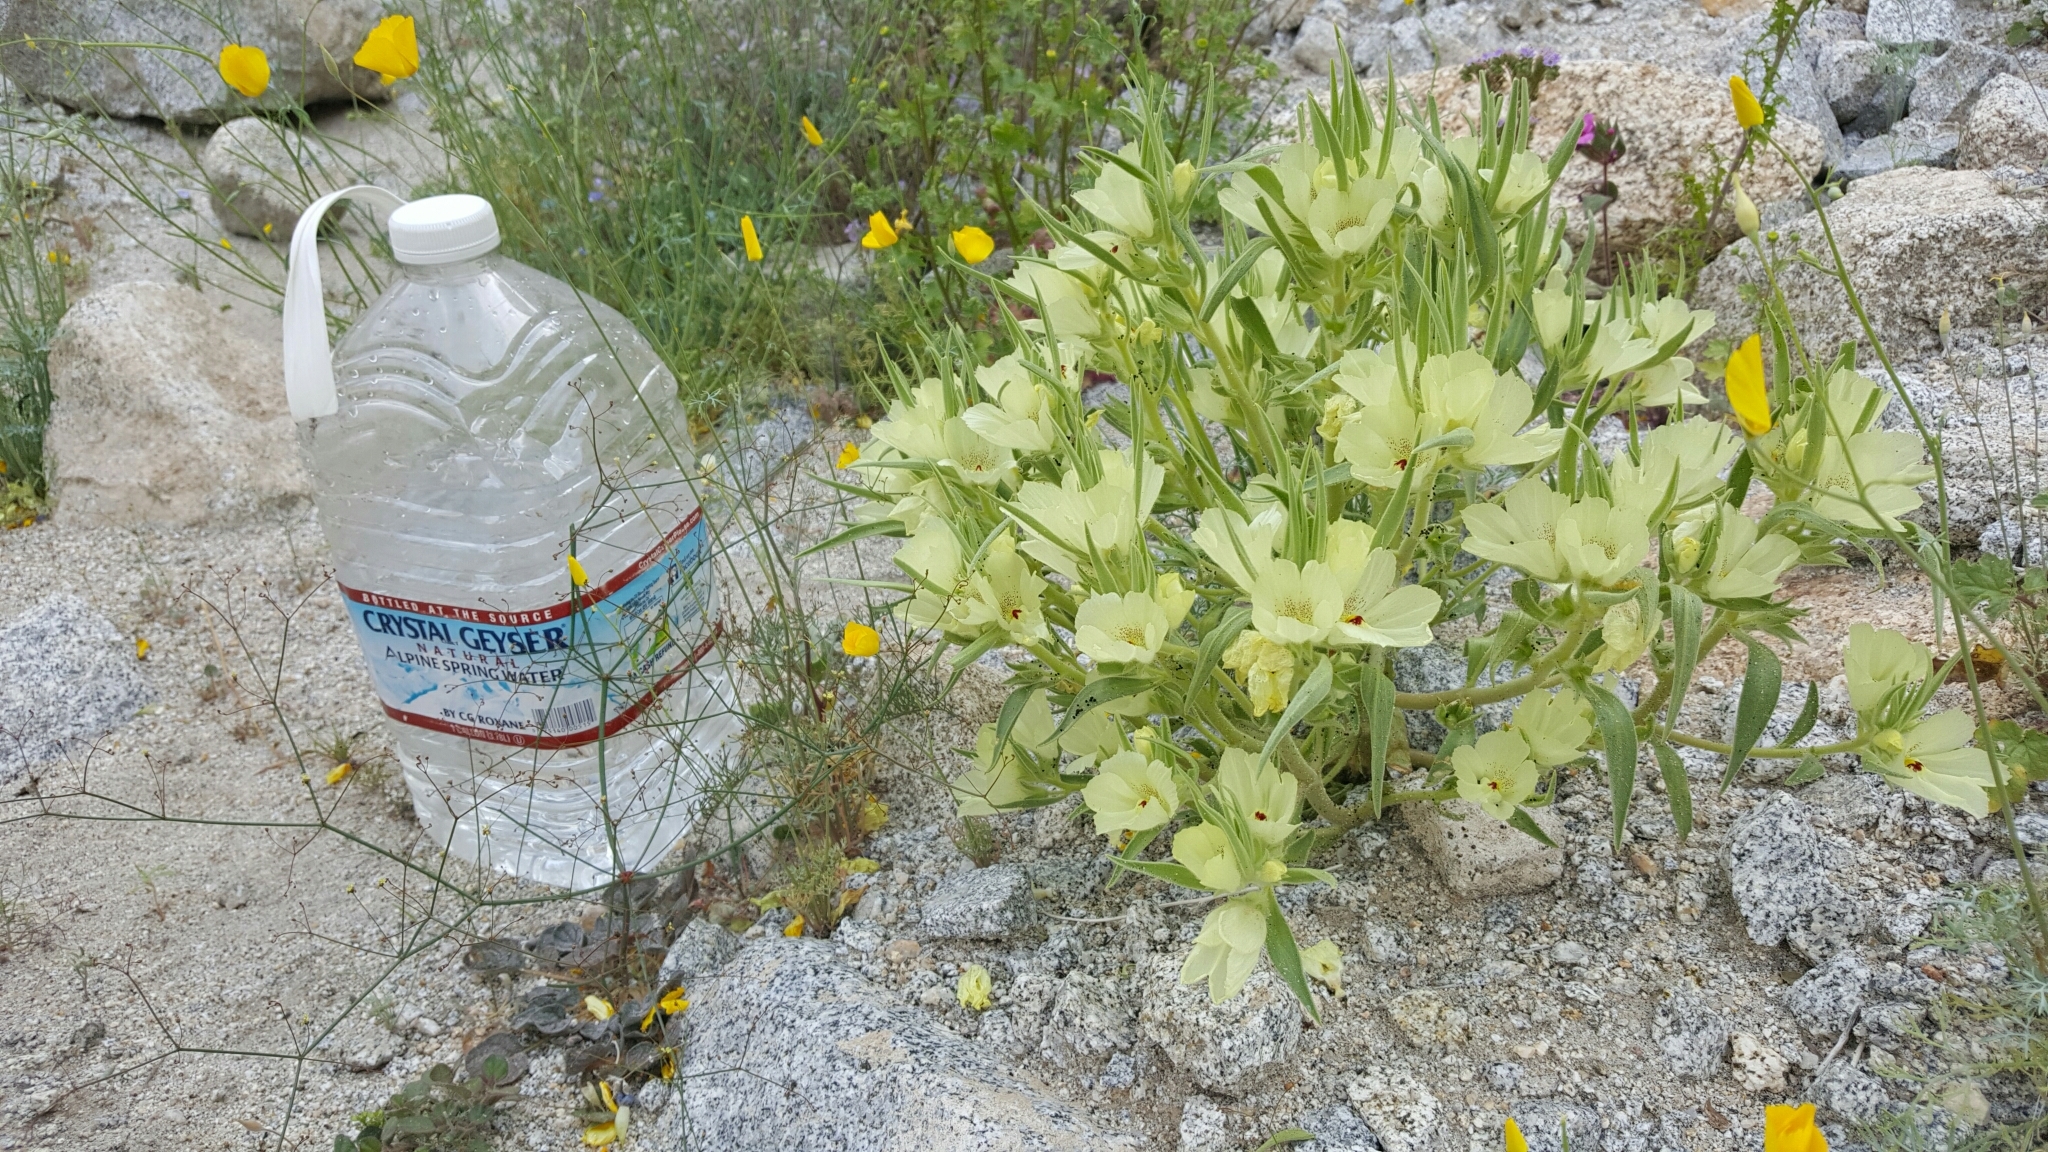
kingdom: Plantae
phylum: Tracheophyta
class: Magnoliopsida
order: Lamiales
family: Plantaginaceae
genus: Mohavea
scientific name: Mohavea confertiflora
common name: Ghost flower
